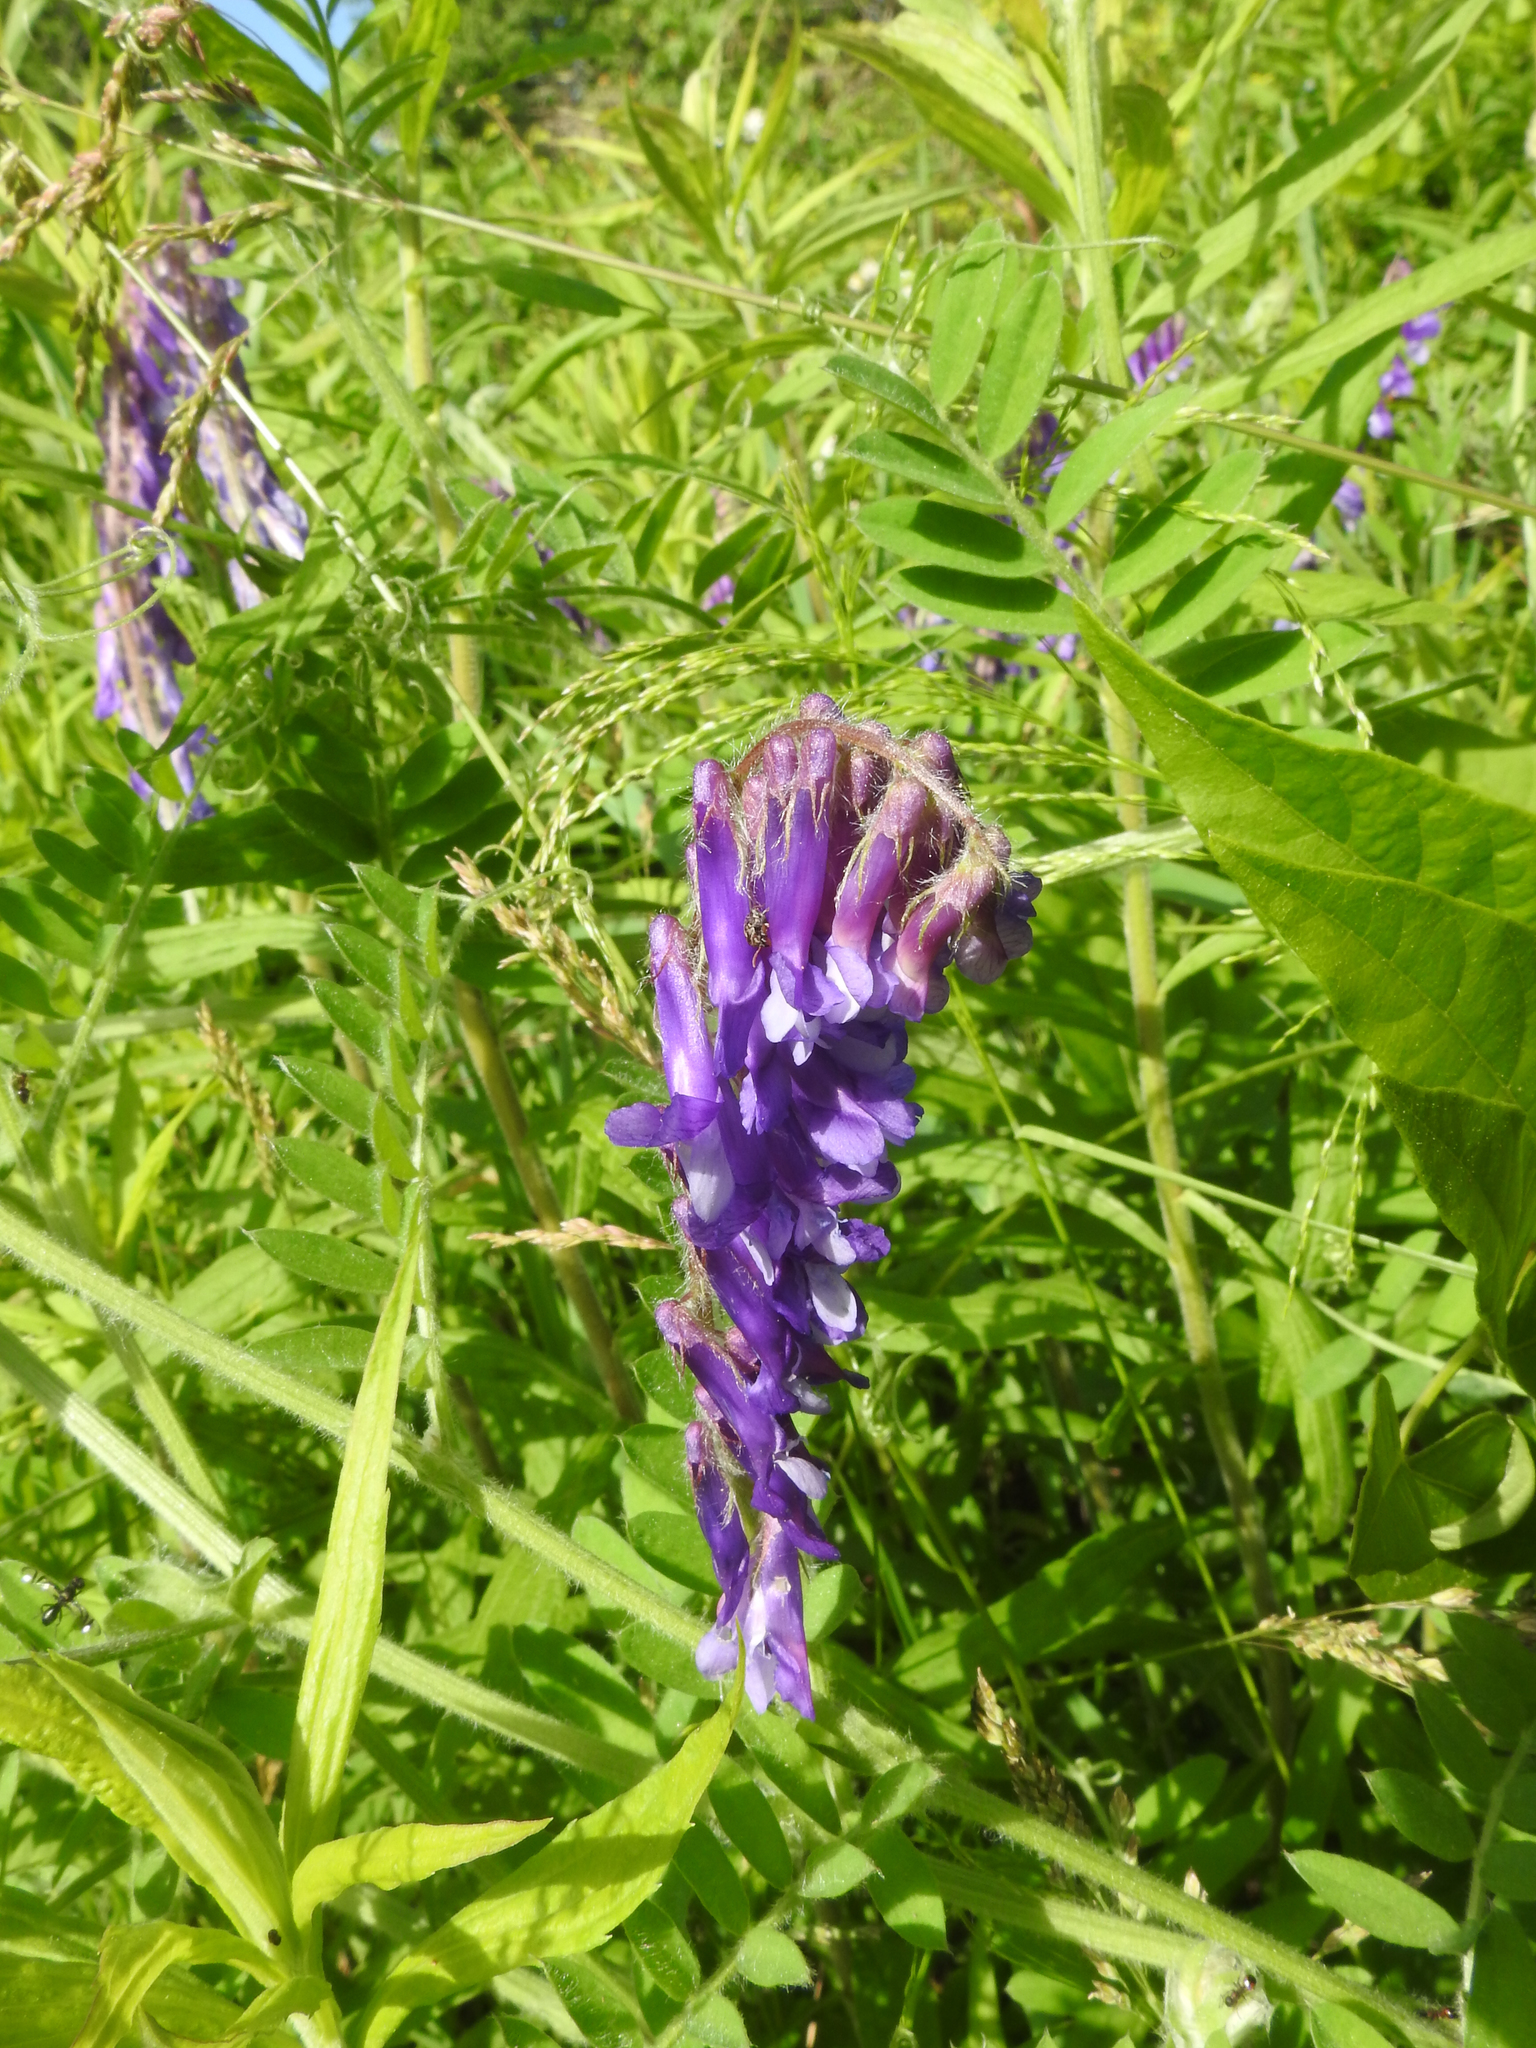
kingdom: Plantae
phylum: Tracheophyta
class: Magnoliopsida
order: Fabales
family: Fabaceae
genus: Vicia
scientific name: Vicia villosa
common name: Fodder vetch
